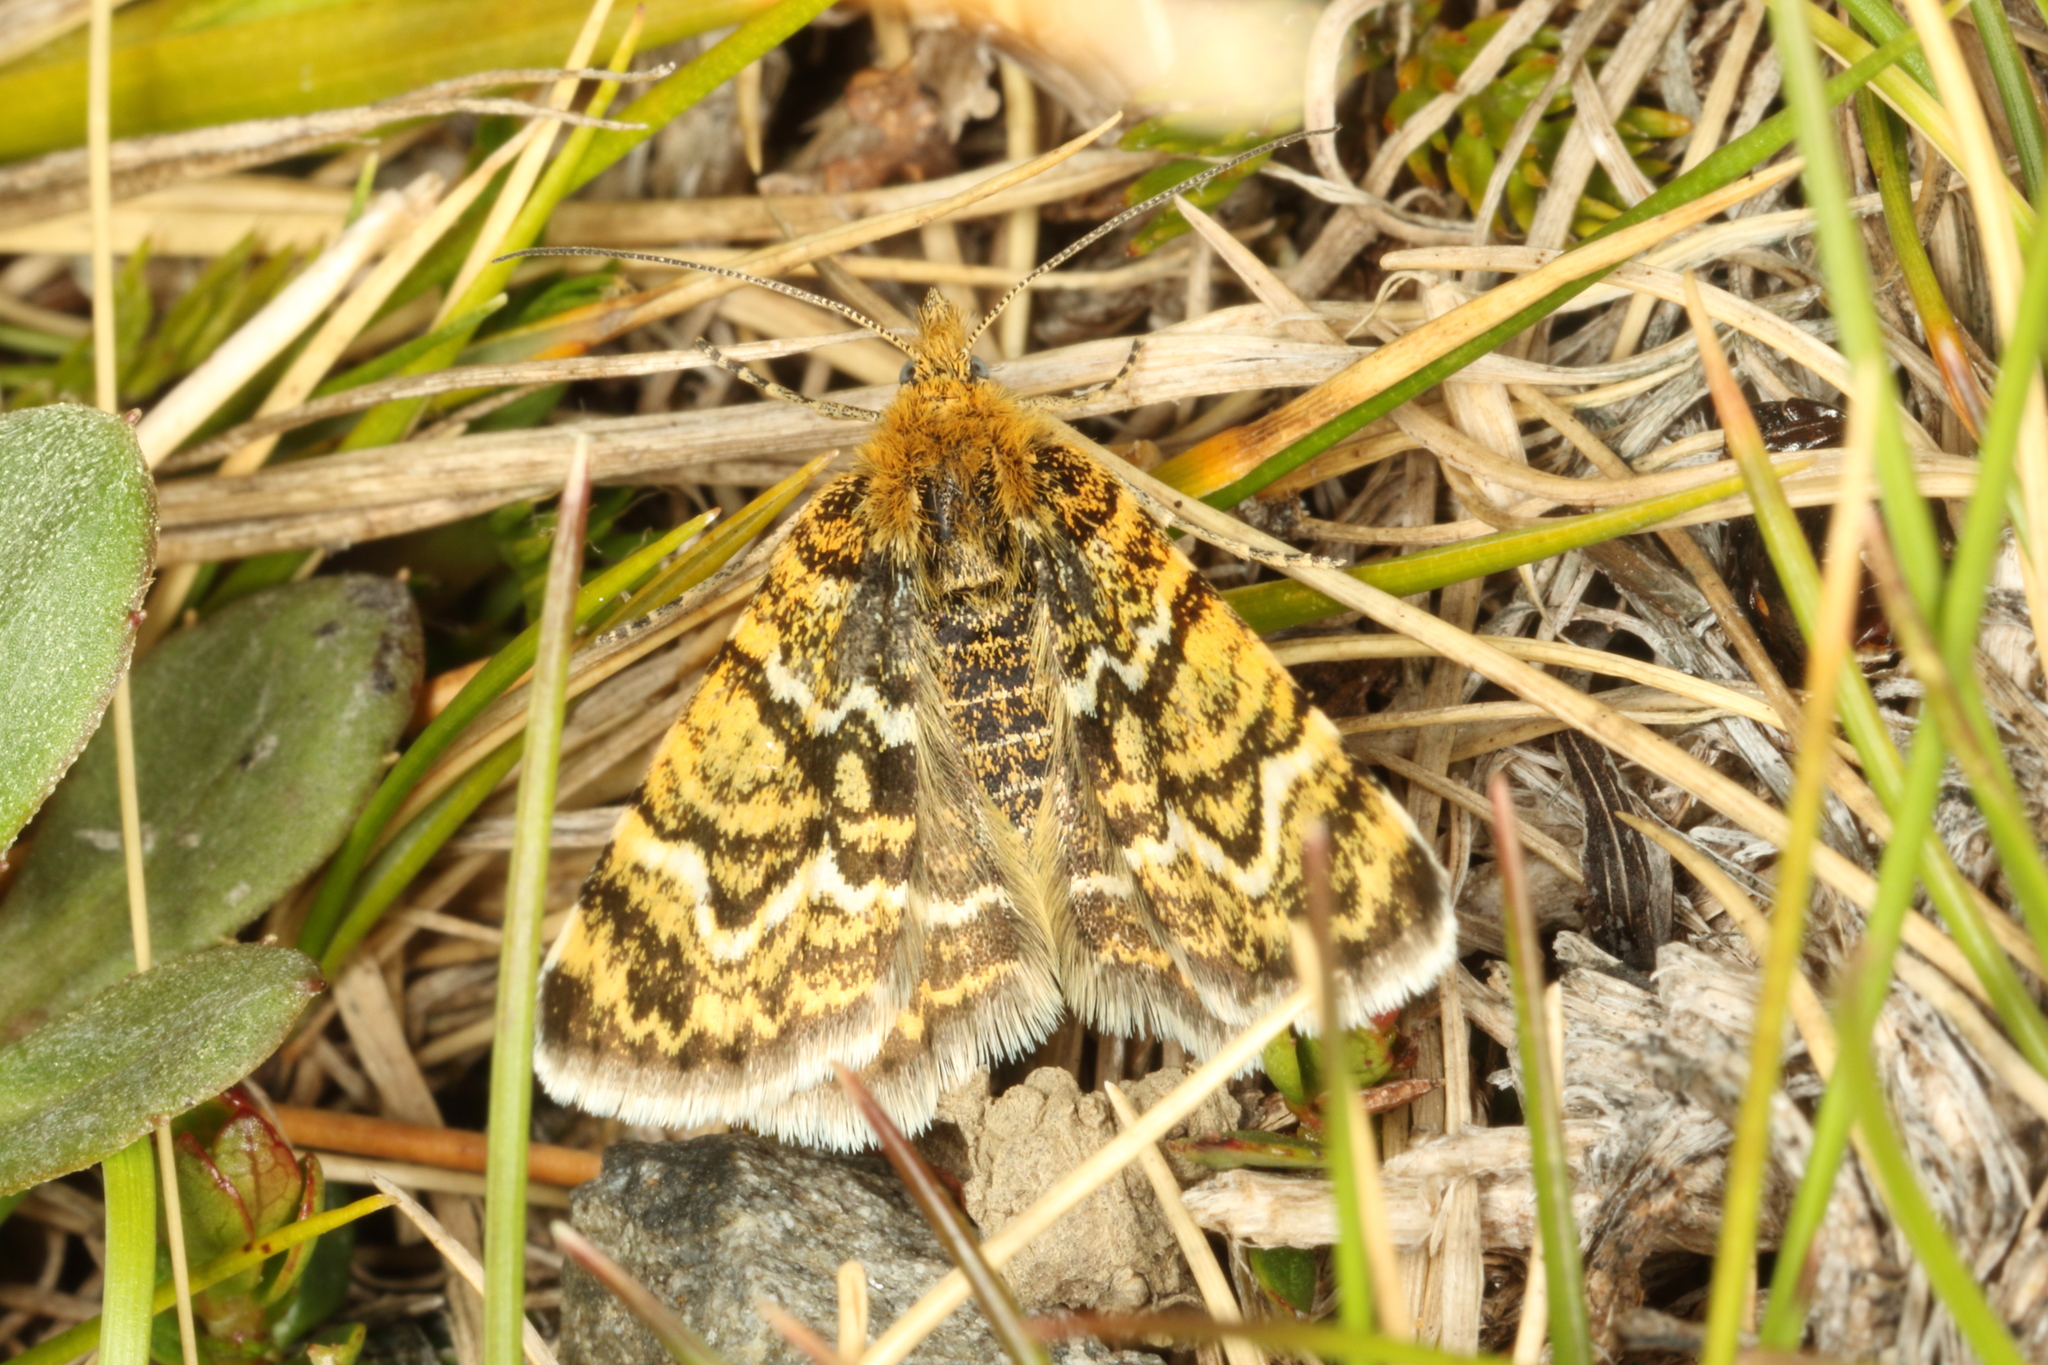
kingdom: Animalia
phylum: Arthropoda
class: Insecta
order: Lepidoptera
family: Geometridae
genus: Notoreas
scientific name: Notoreas mechanitis
